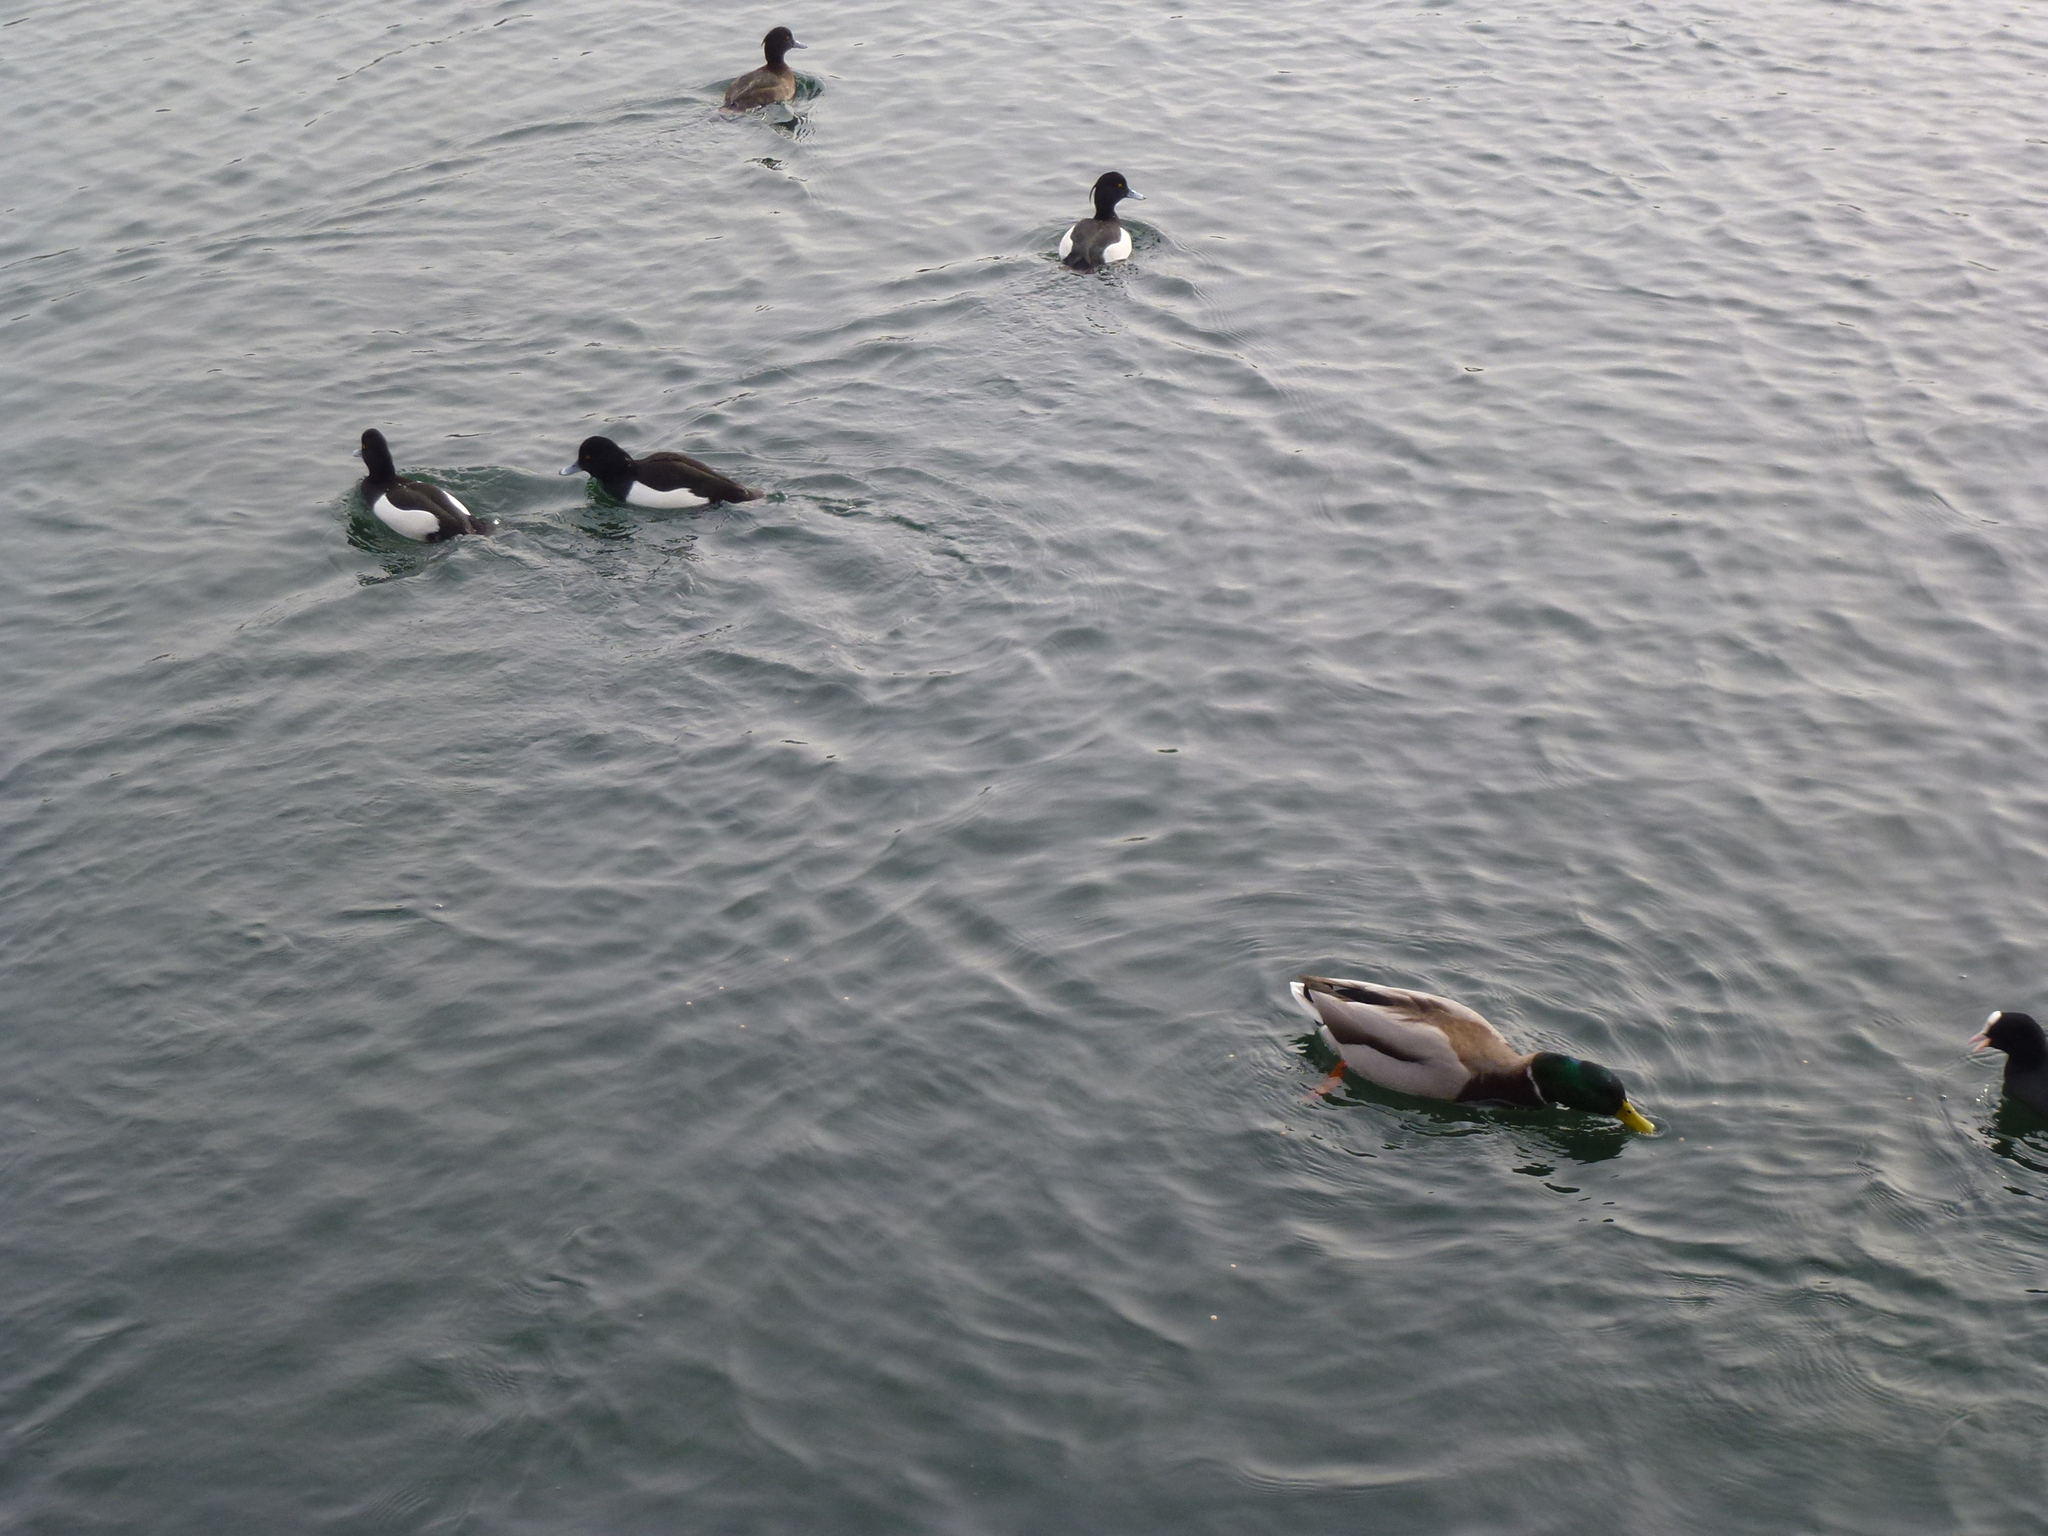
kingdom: Animalia
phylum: Chordata
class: Aves
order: Anseriformes
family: Anatidae
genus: Aythya
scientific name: Aythya fuligula
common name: Tufted duck
